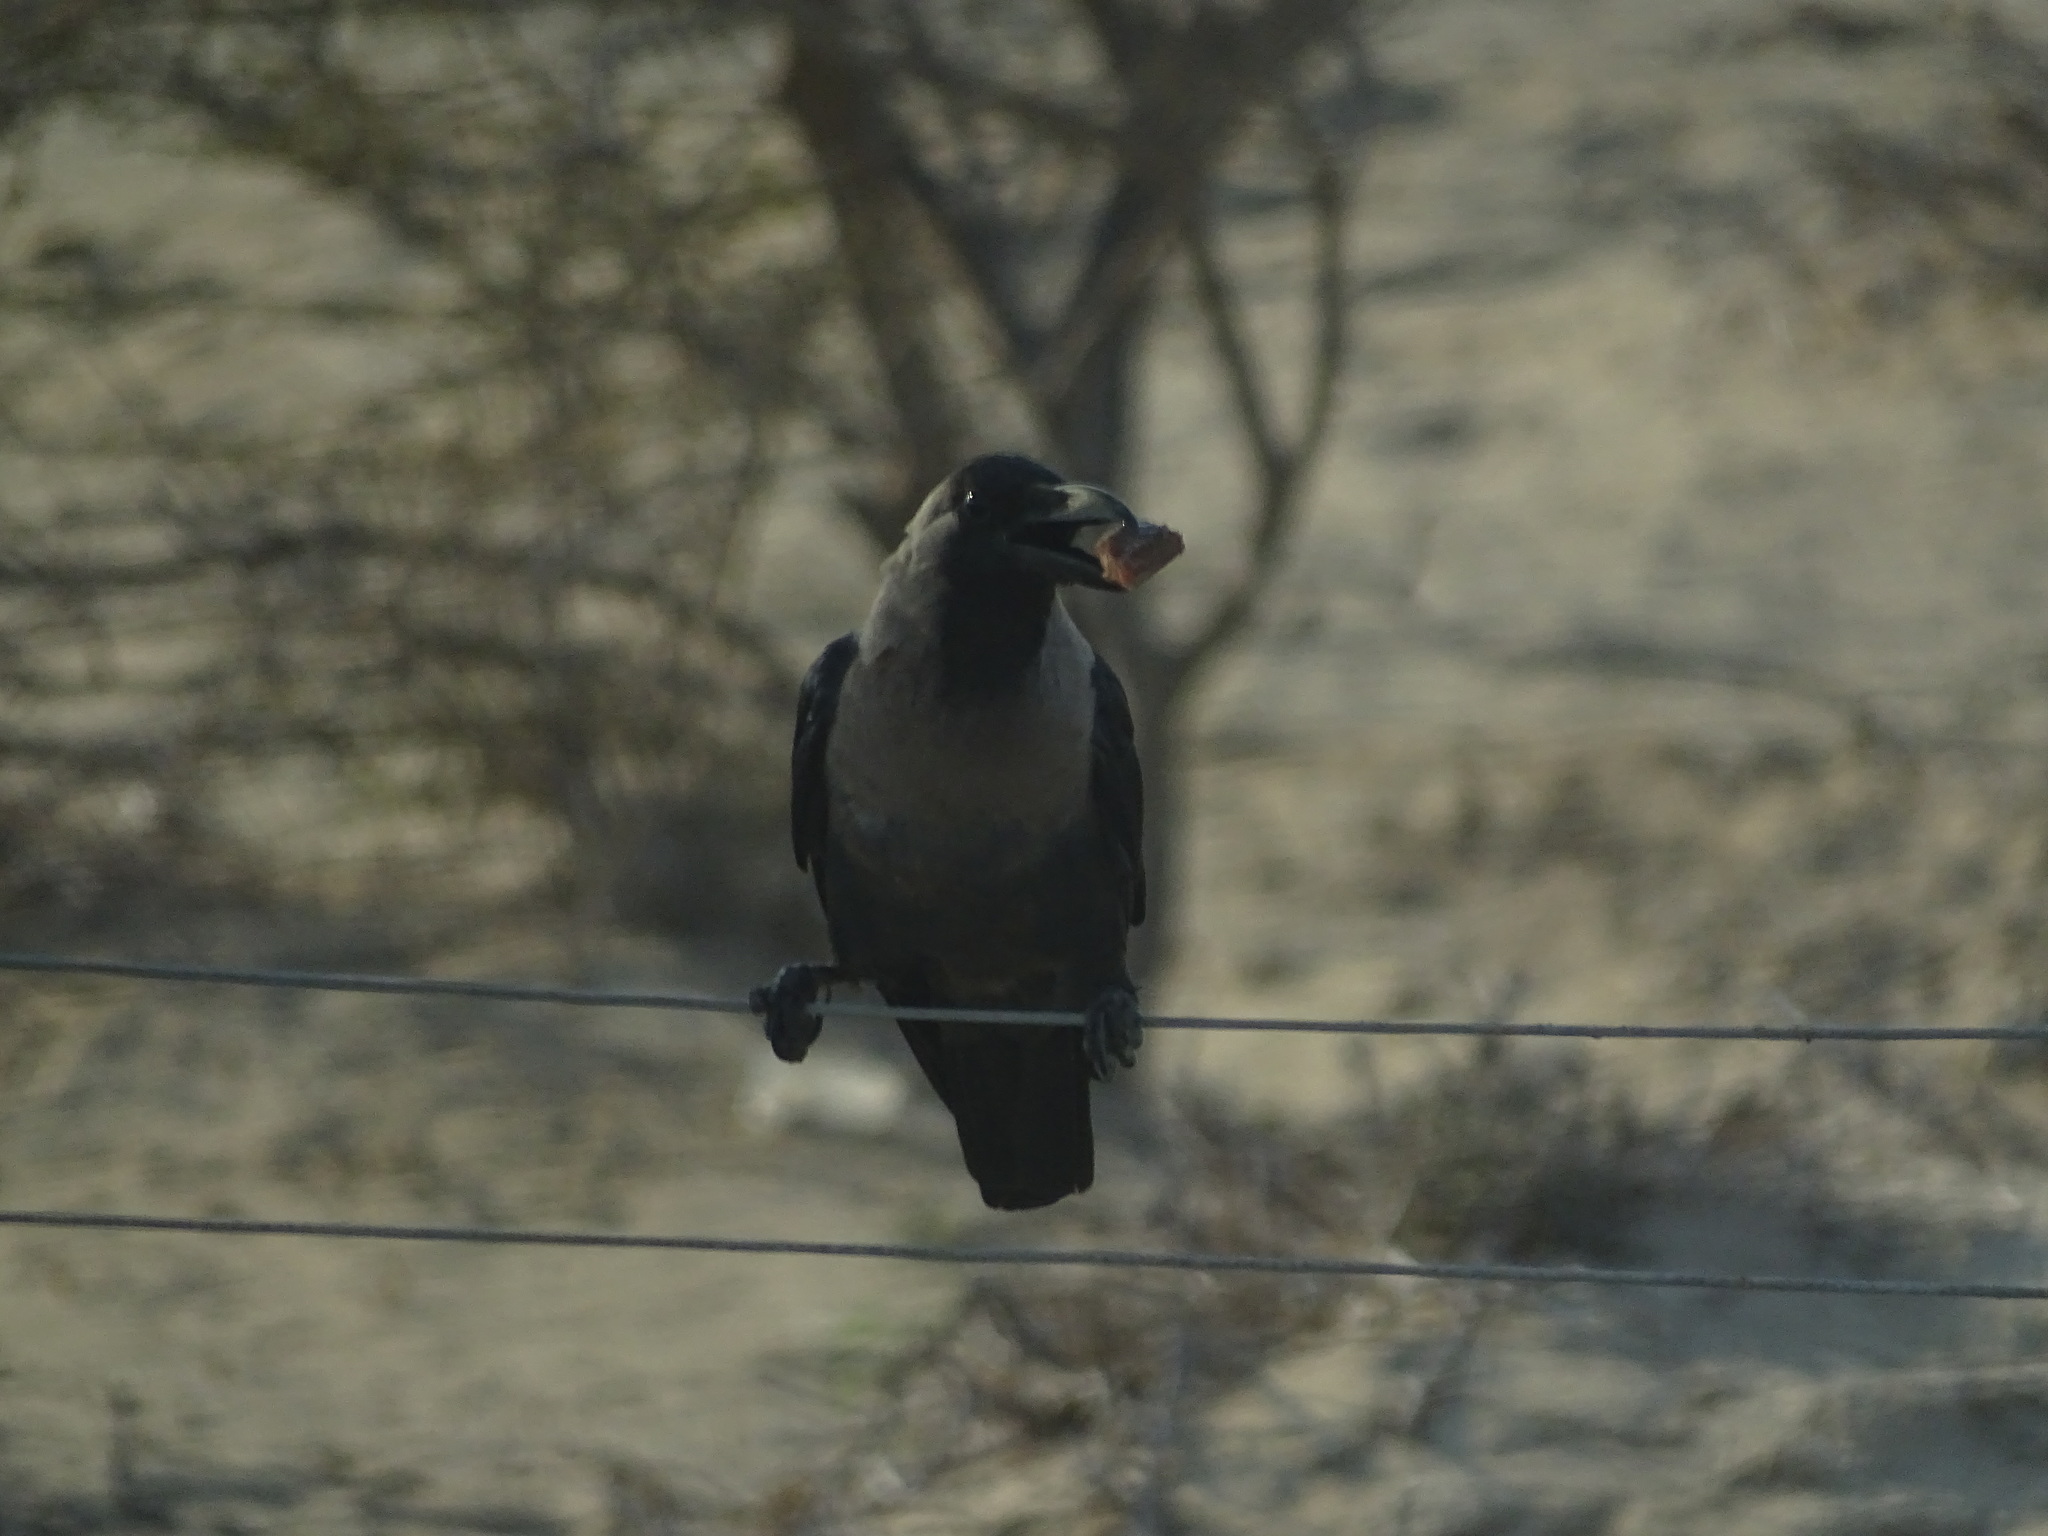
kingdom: Animalia
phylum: Chordata
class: Aves
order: Passeriformes
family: Corvidae
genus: Corvus
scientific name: Corvus splendens
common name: House crow
